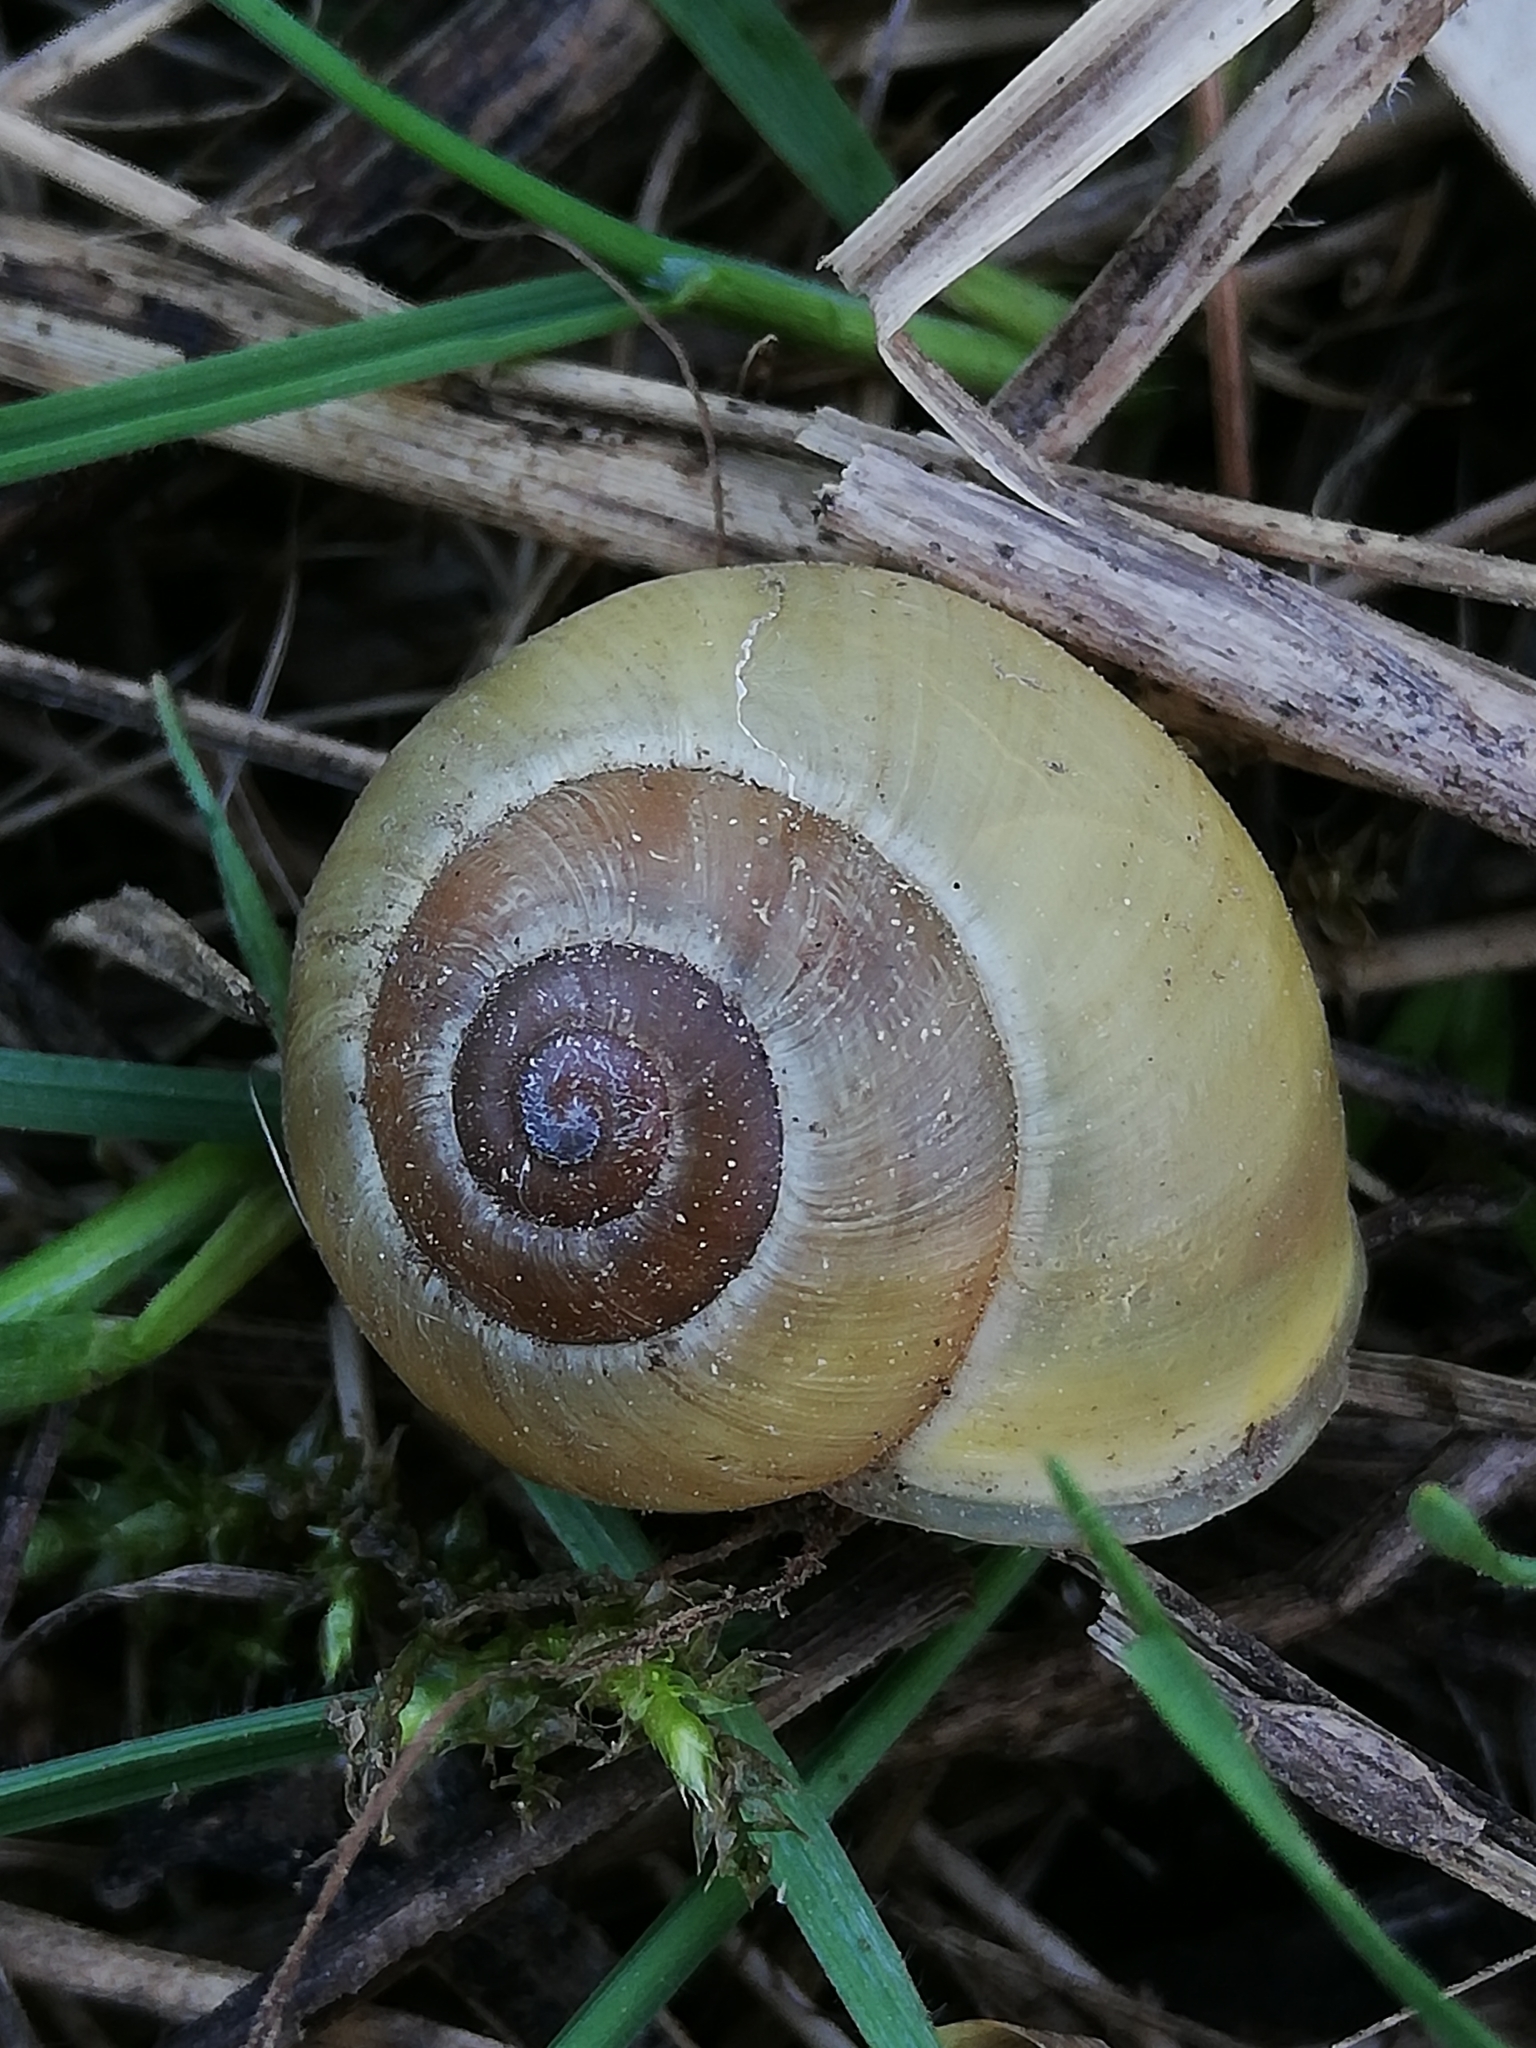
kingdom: Animalia
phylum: Mollusca
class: Gastropoda
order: Stylommatophora
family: Helicidae
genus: Cepaea
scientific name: Cepaea hortensis
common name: White-lip gardensnail
